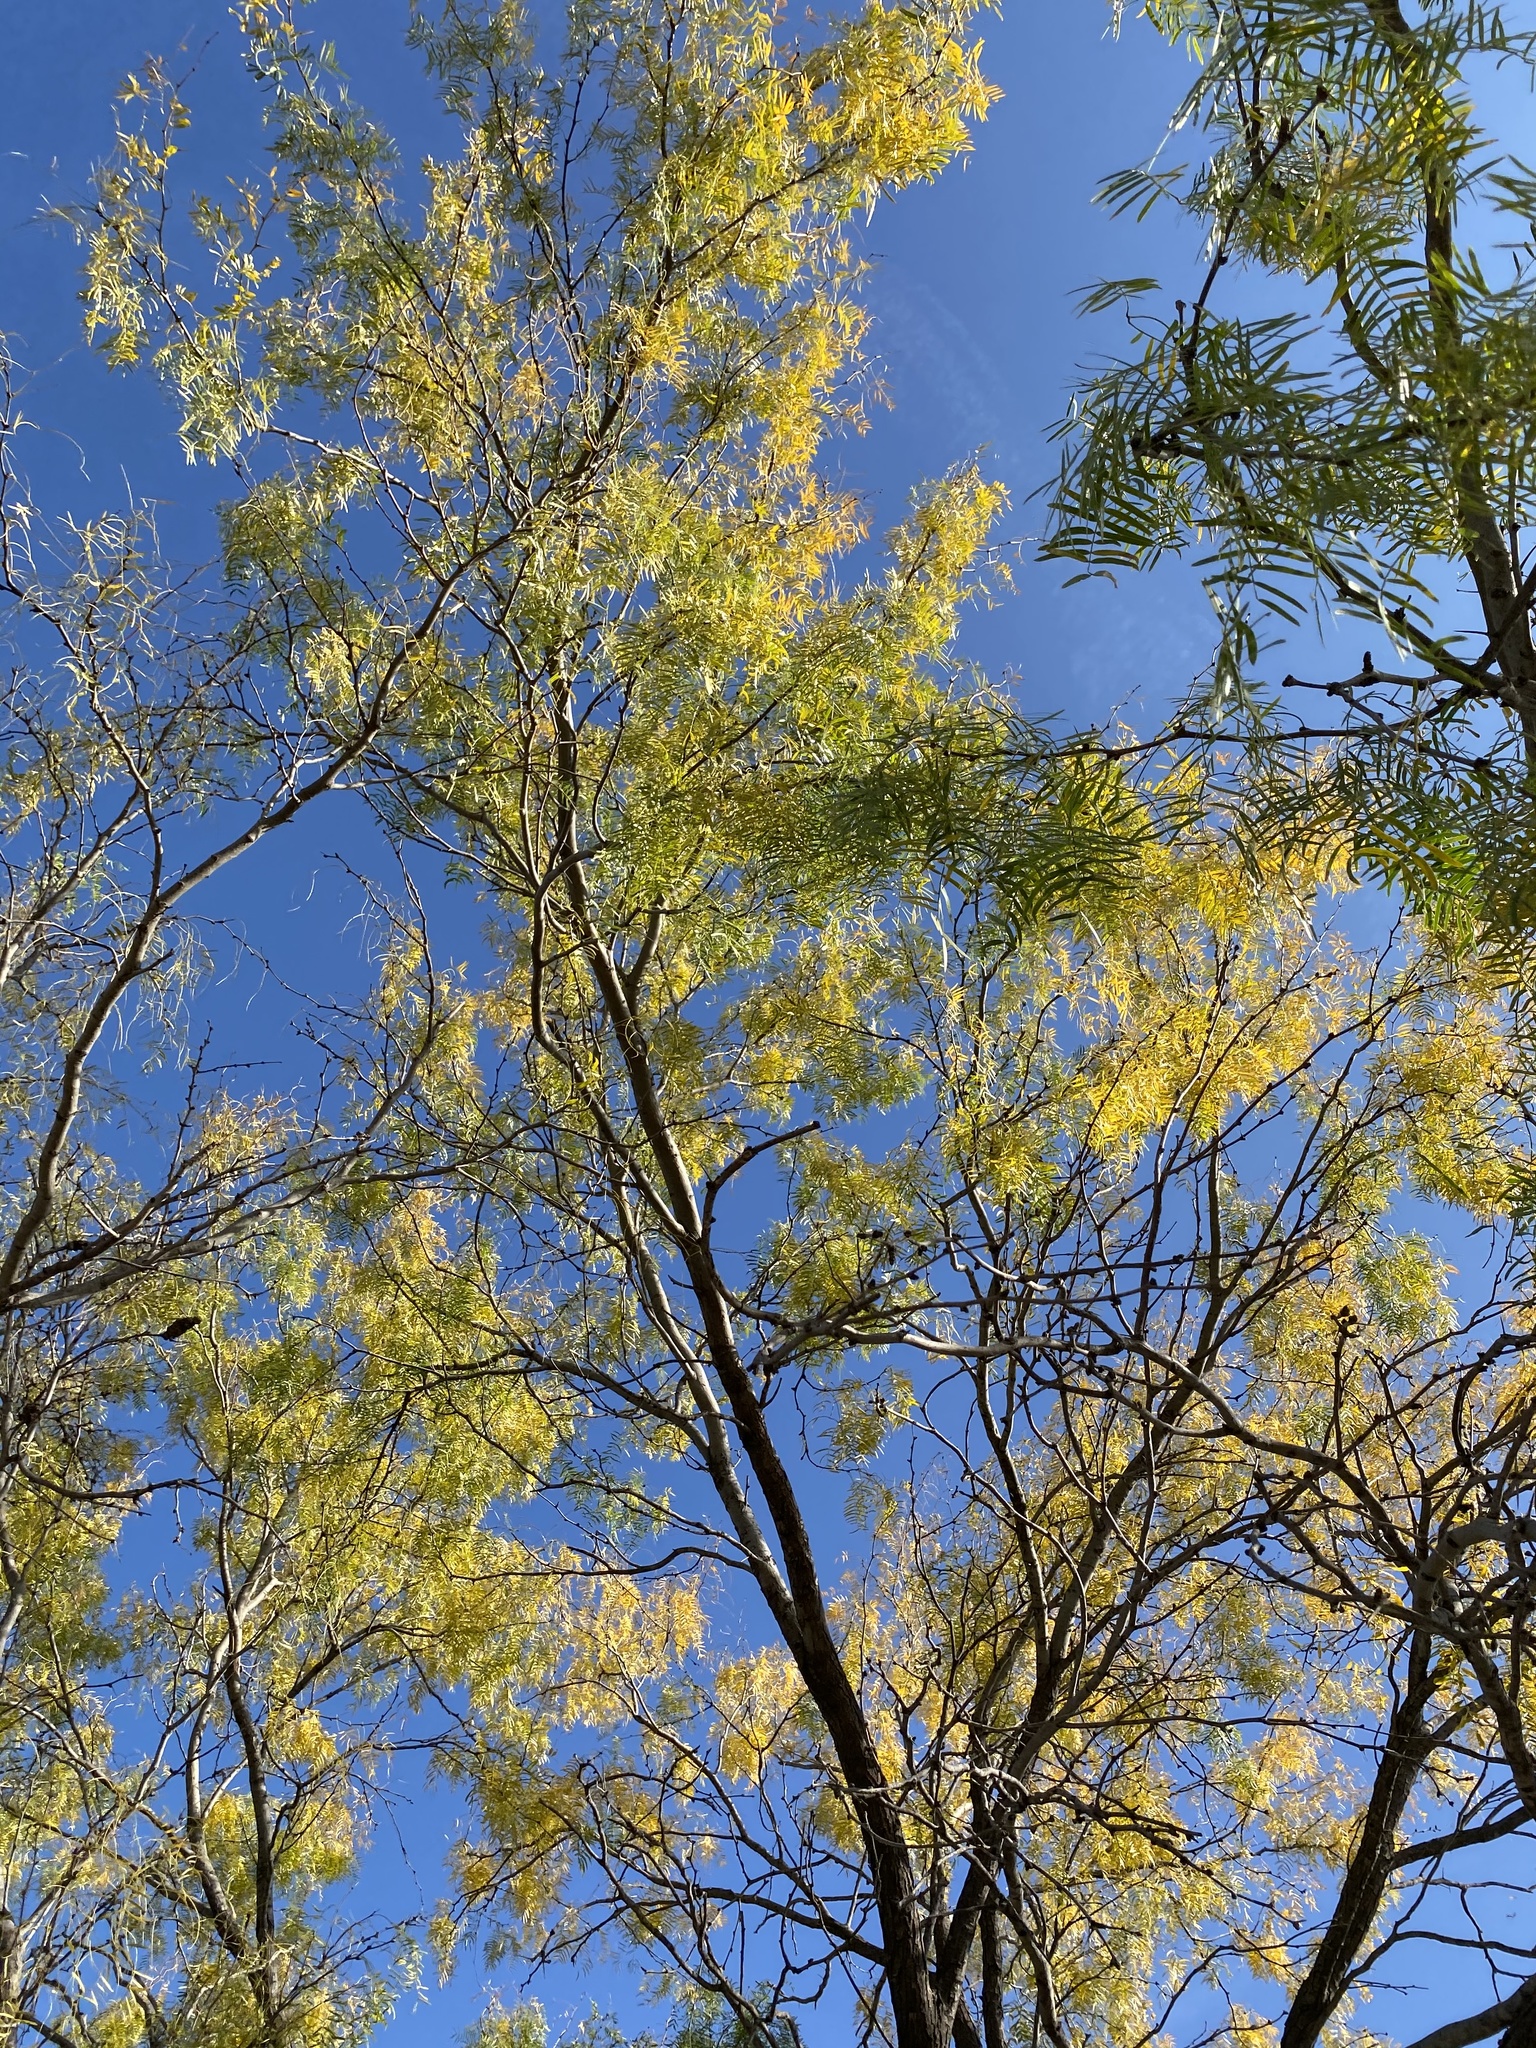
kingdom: Plantae
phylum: Tracheophyta
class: Magnoliopsida
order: Fabales
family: Fabaceae
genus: Prosopis
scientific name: Prosopis glandulosa
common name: Honey mesquite
